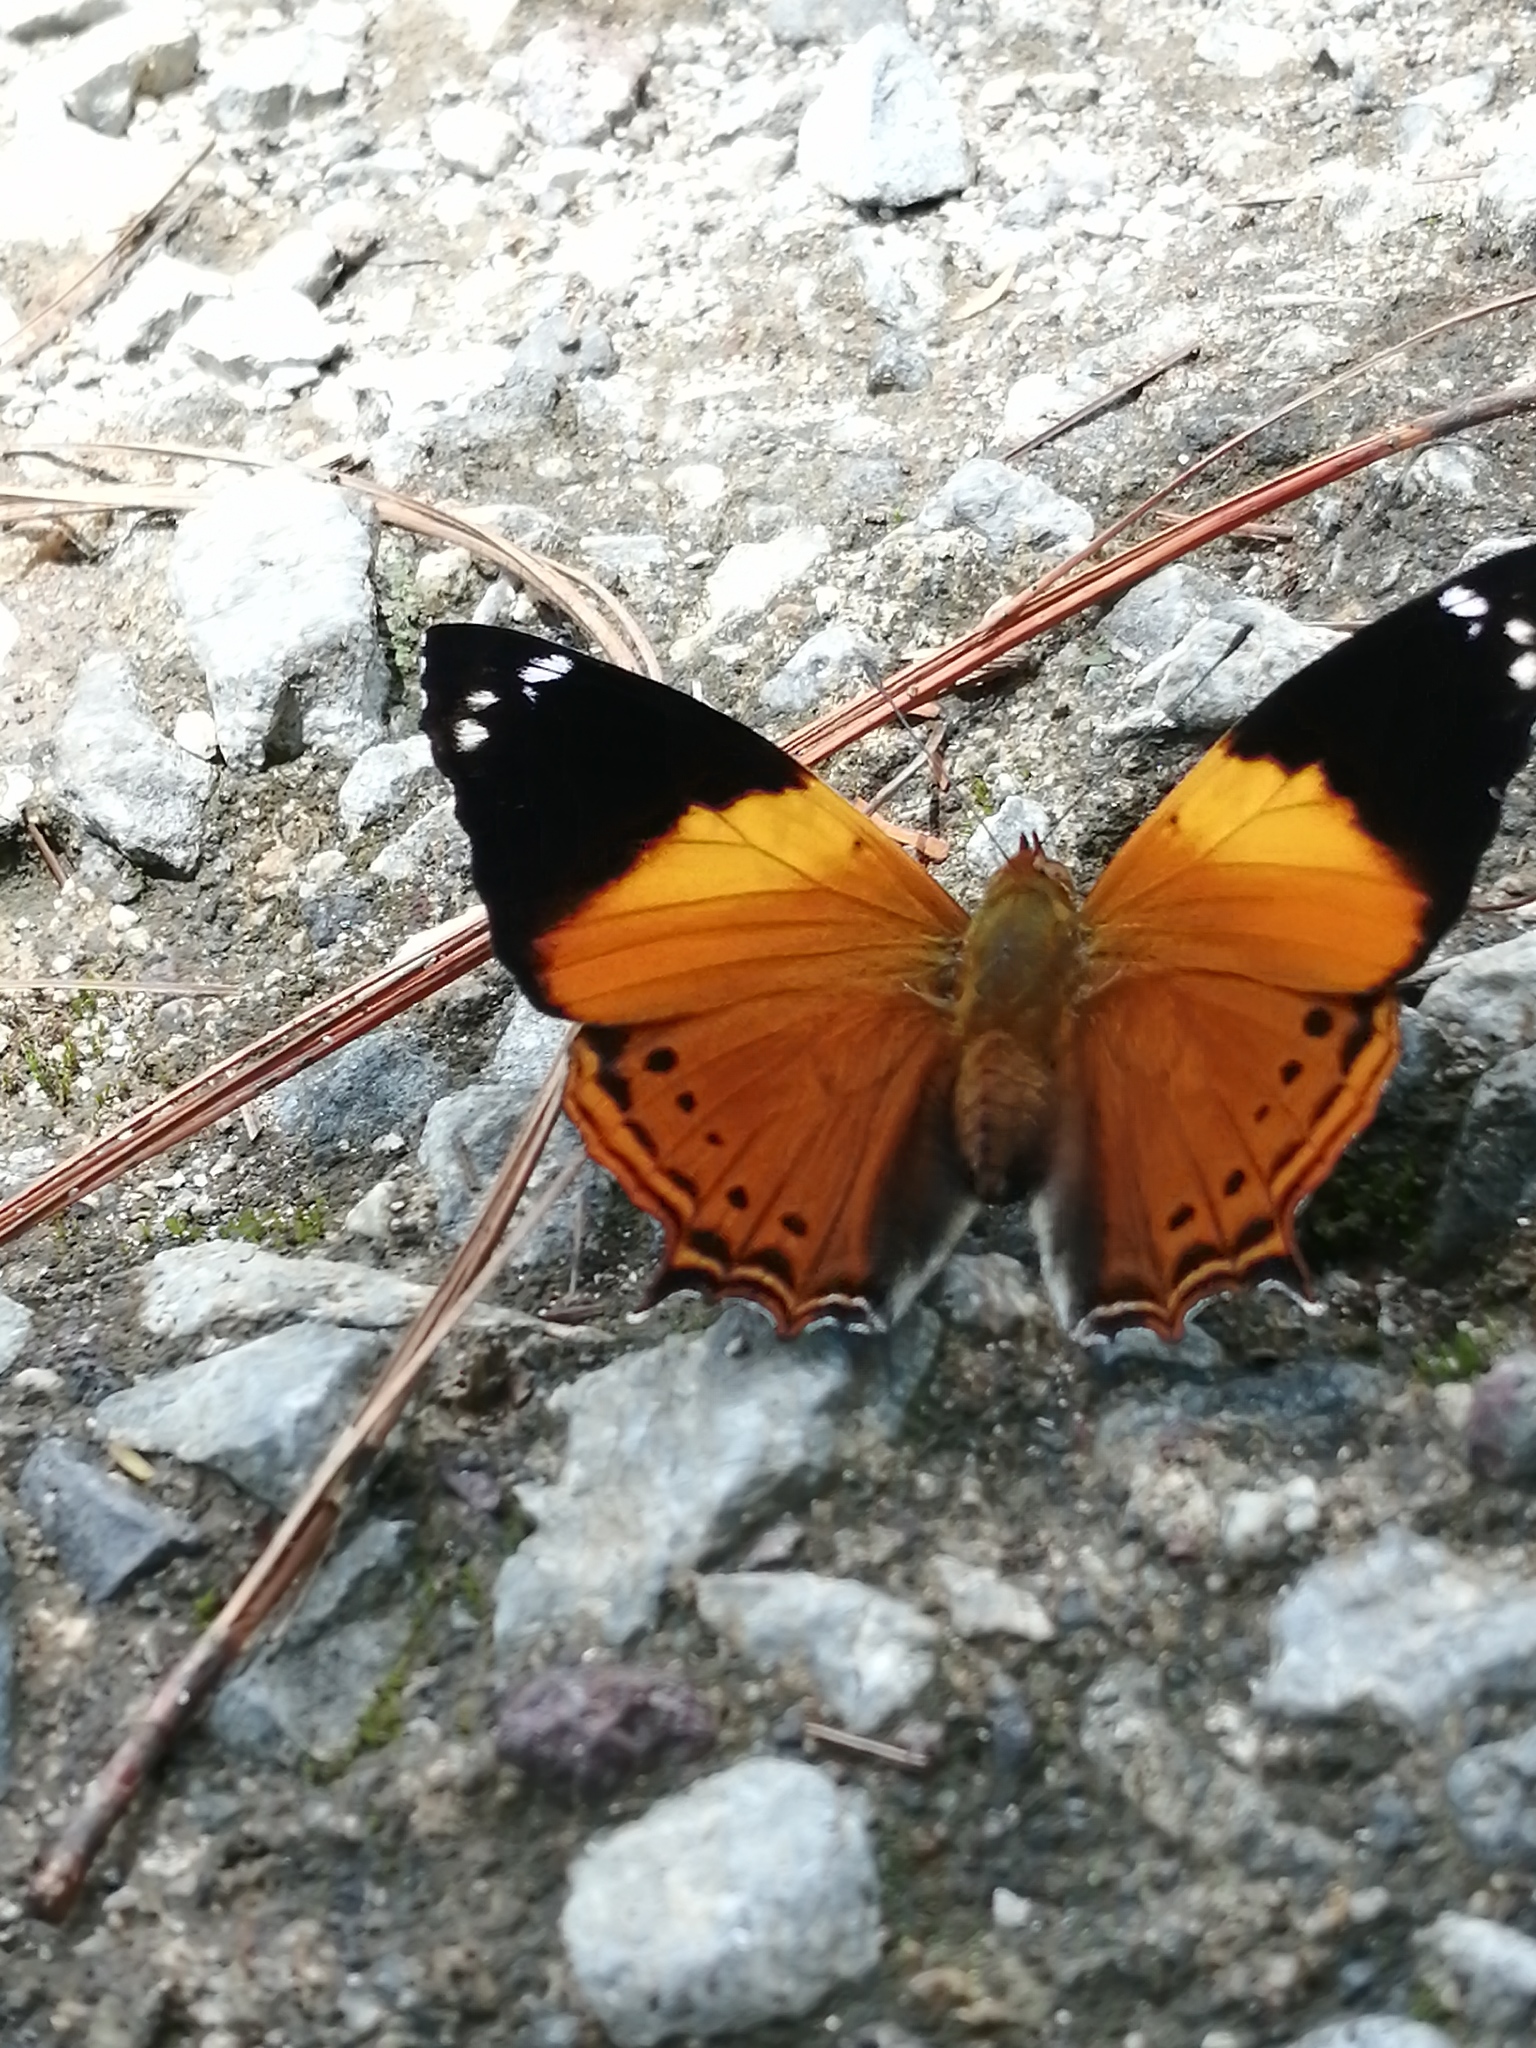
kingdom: Animalia
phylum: Arthropoda
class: Insecta
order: Lepidoptera
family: Nymphalidae
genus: Hypanartia
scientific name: Hypanartia godmanii
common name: Godman's mapwing
